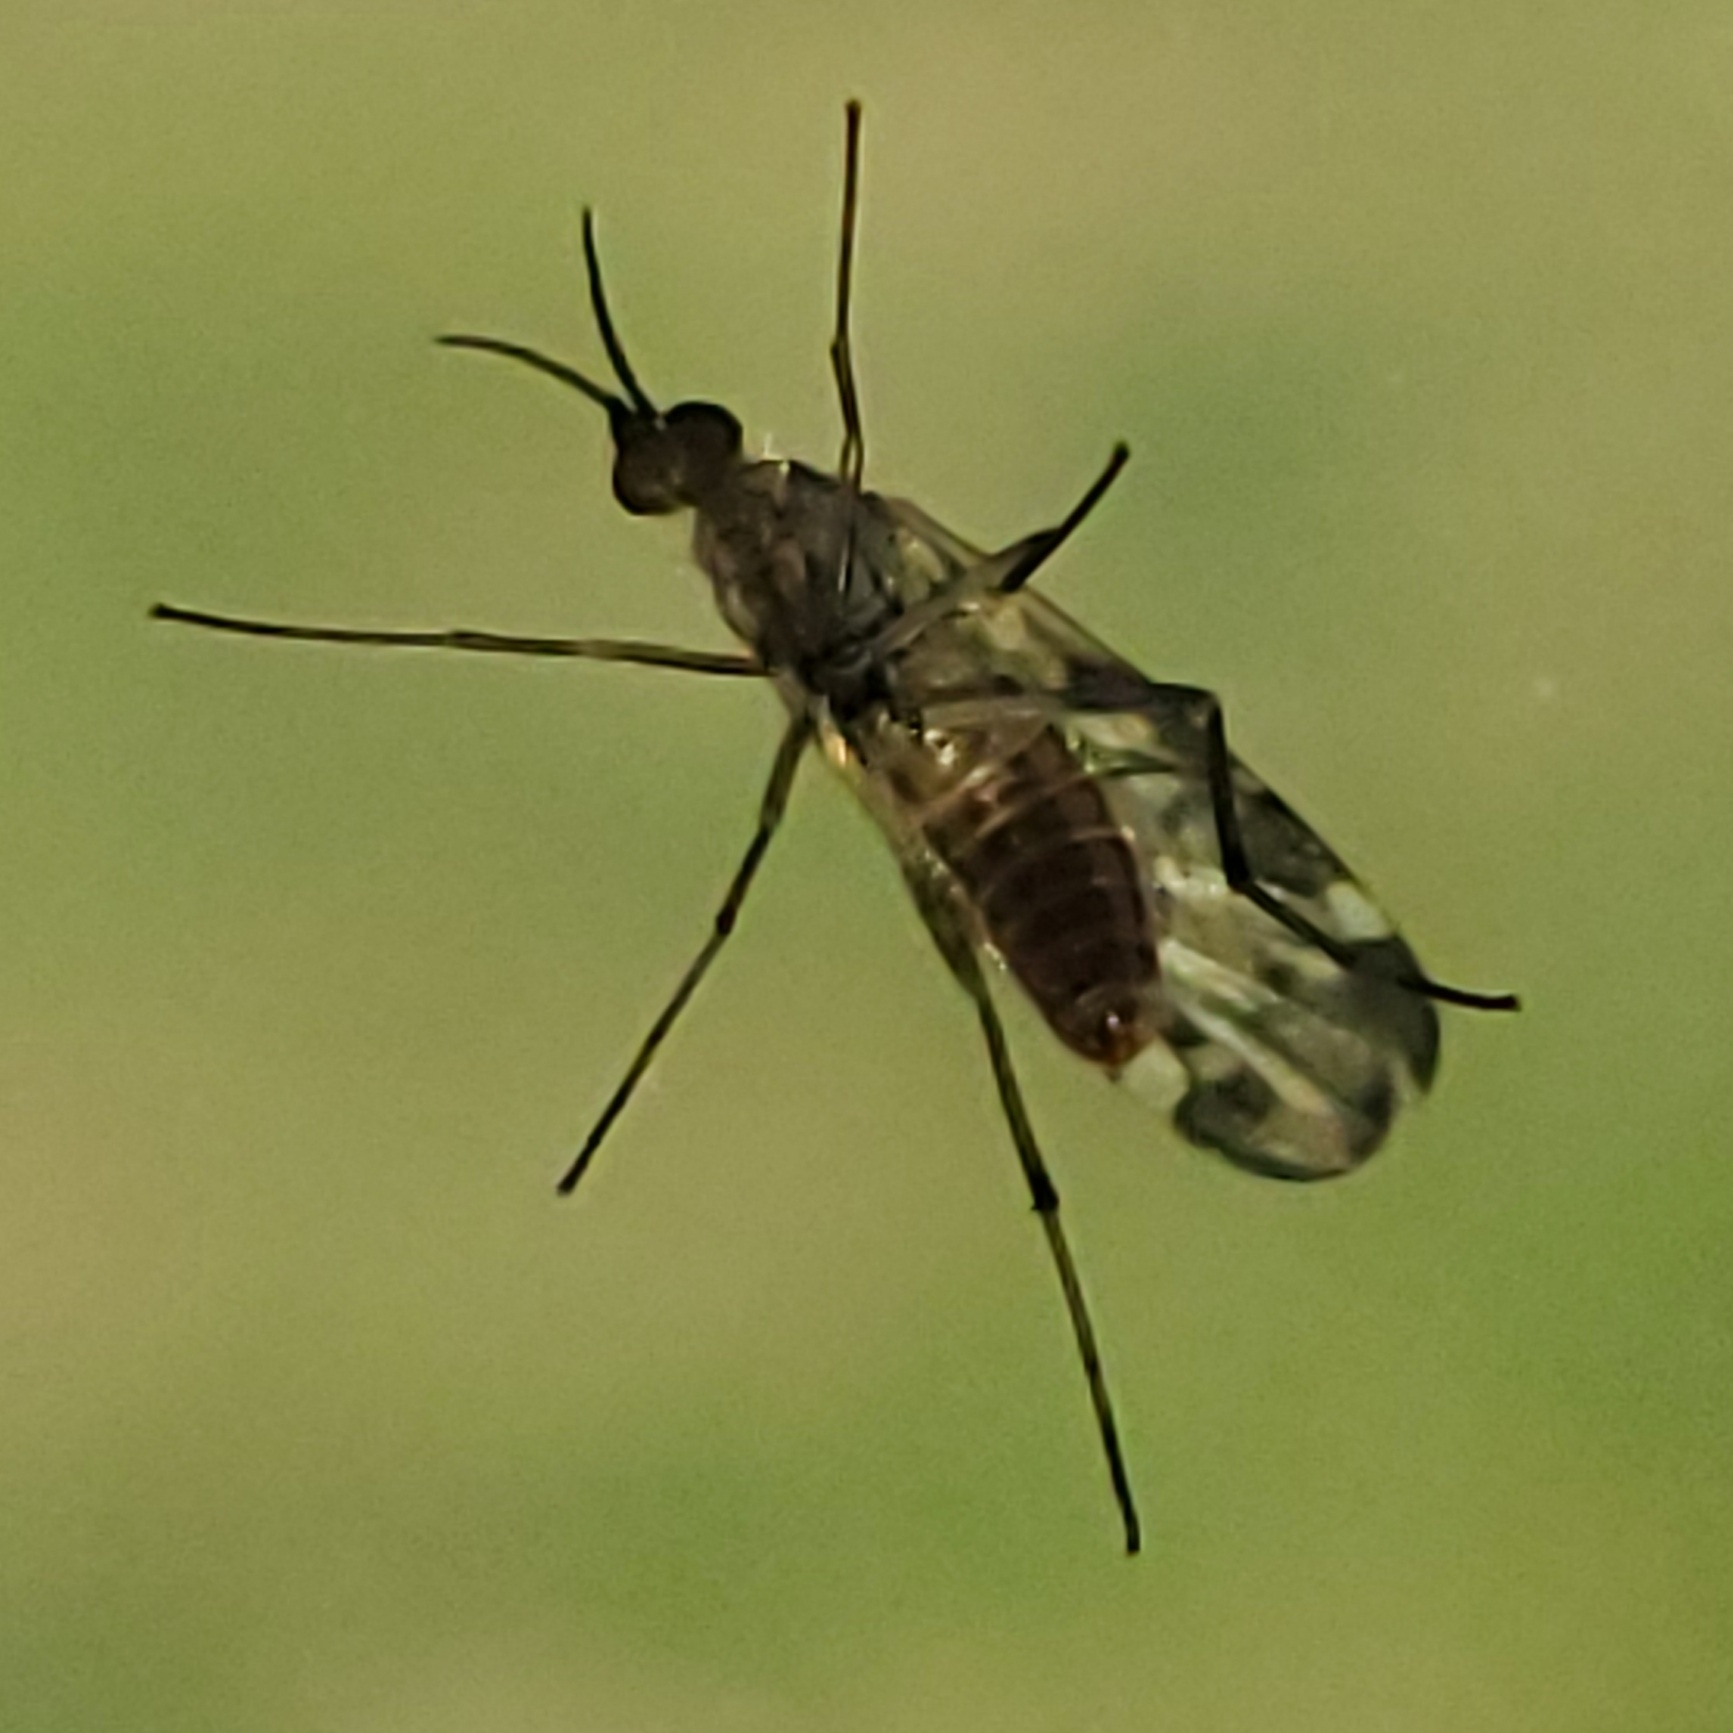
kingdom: Animalia
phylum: Arthropoda
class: Insecta
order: Diptera
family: Anisopodidae
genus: Sylvicola
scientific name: Sylvicola alternata
